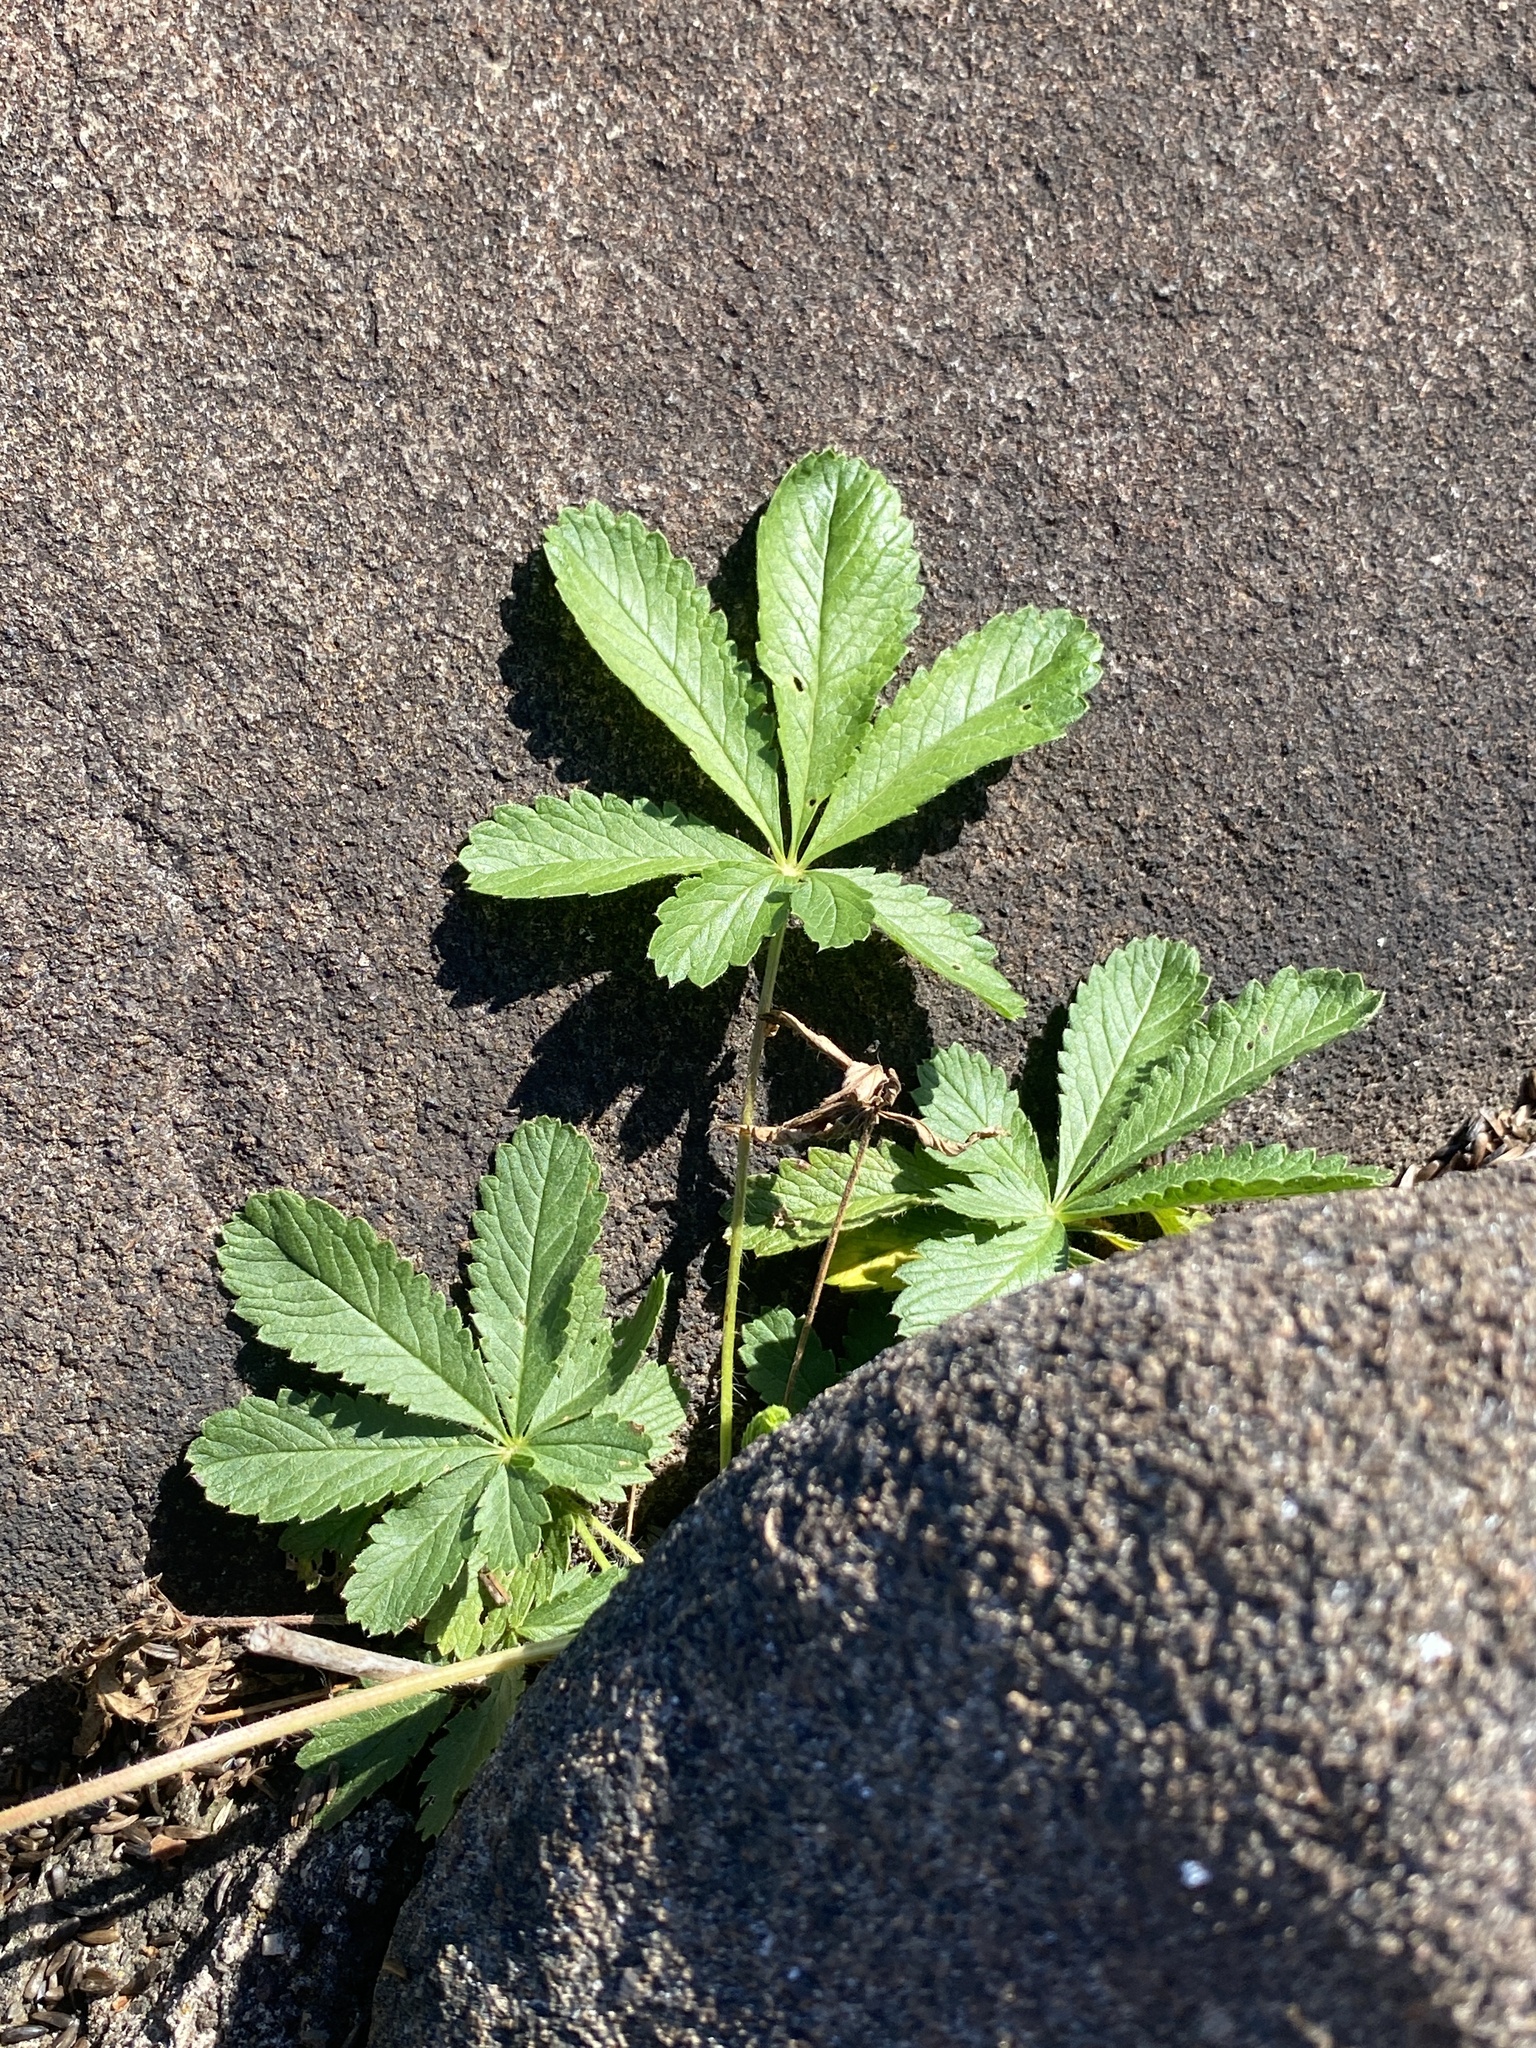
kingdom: Plantae
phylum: Tracheophyta
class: Magnoliopsida
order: Rosales
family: Rosaceae
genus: Potentilla
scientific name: Potentilla recta
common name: Sulphur cinquefoil
